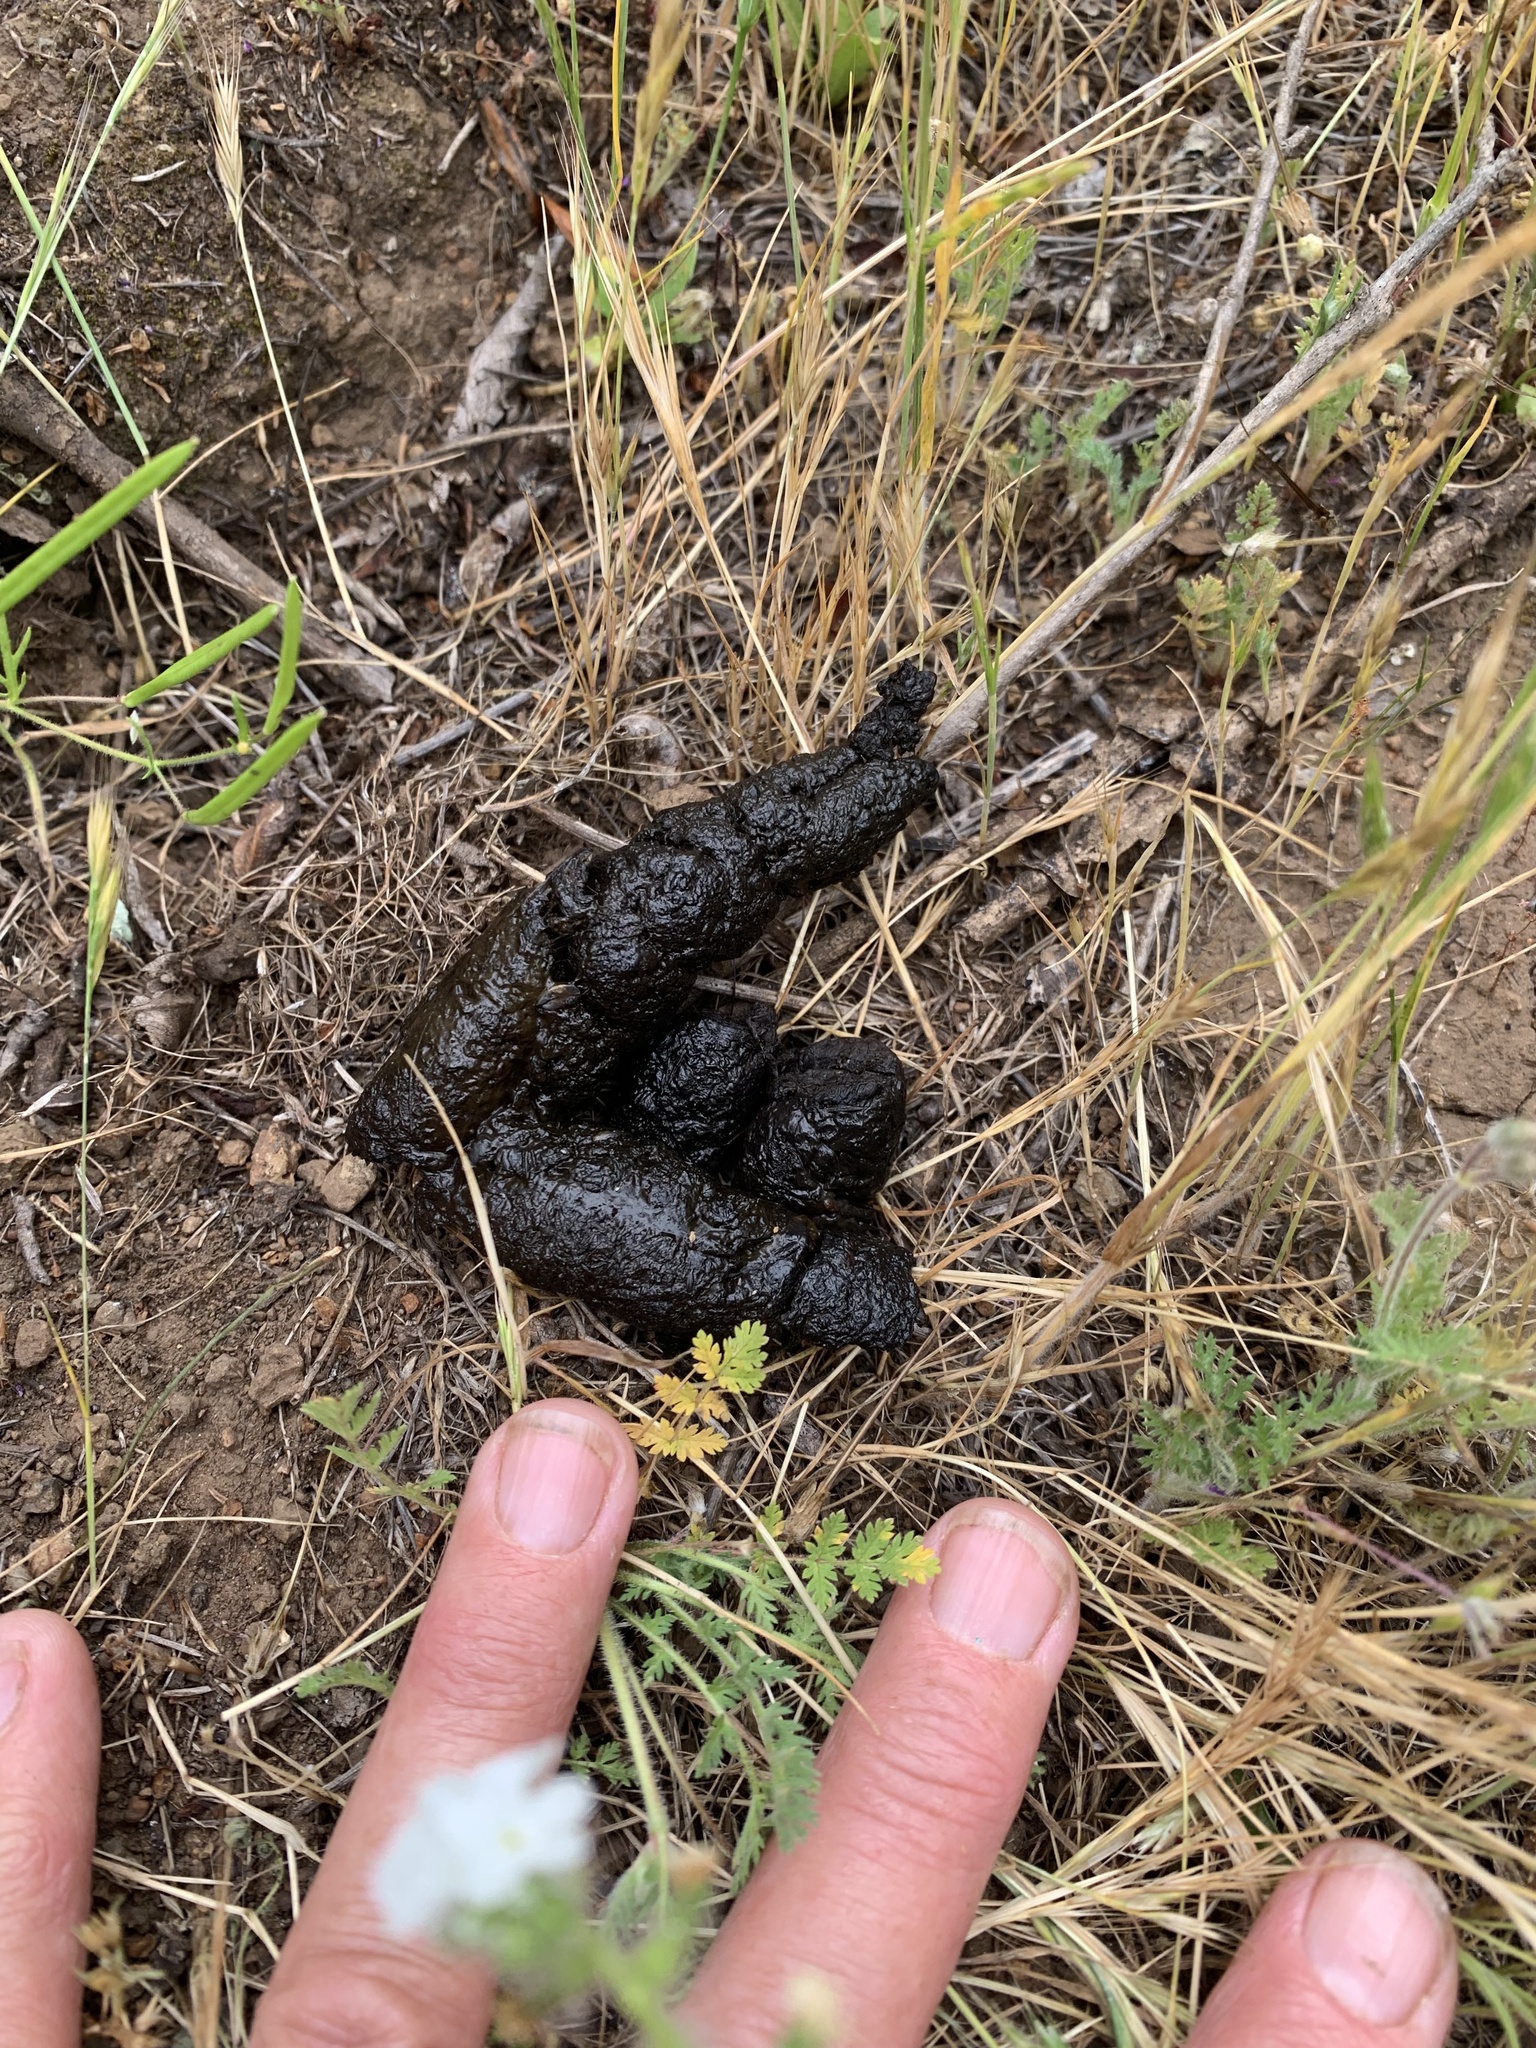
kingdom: Animalia
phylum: Chordata
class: Mammalia
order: Carnivora
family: Canidae
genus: Urocyon
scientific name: Urocyon cinereoargenteus
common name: Gray fox
